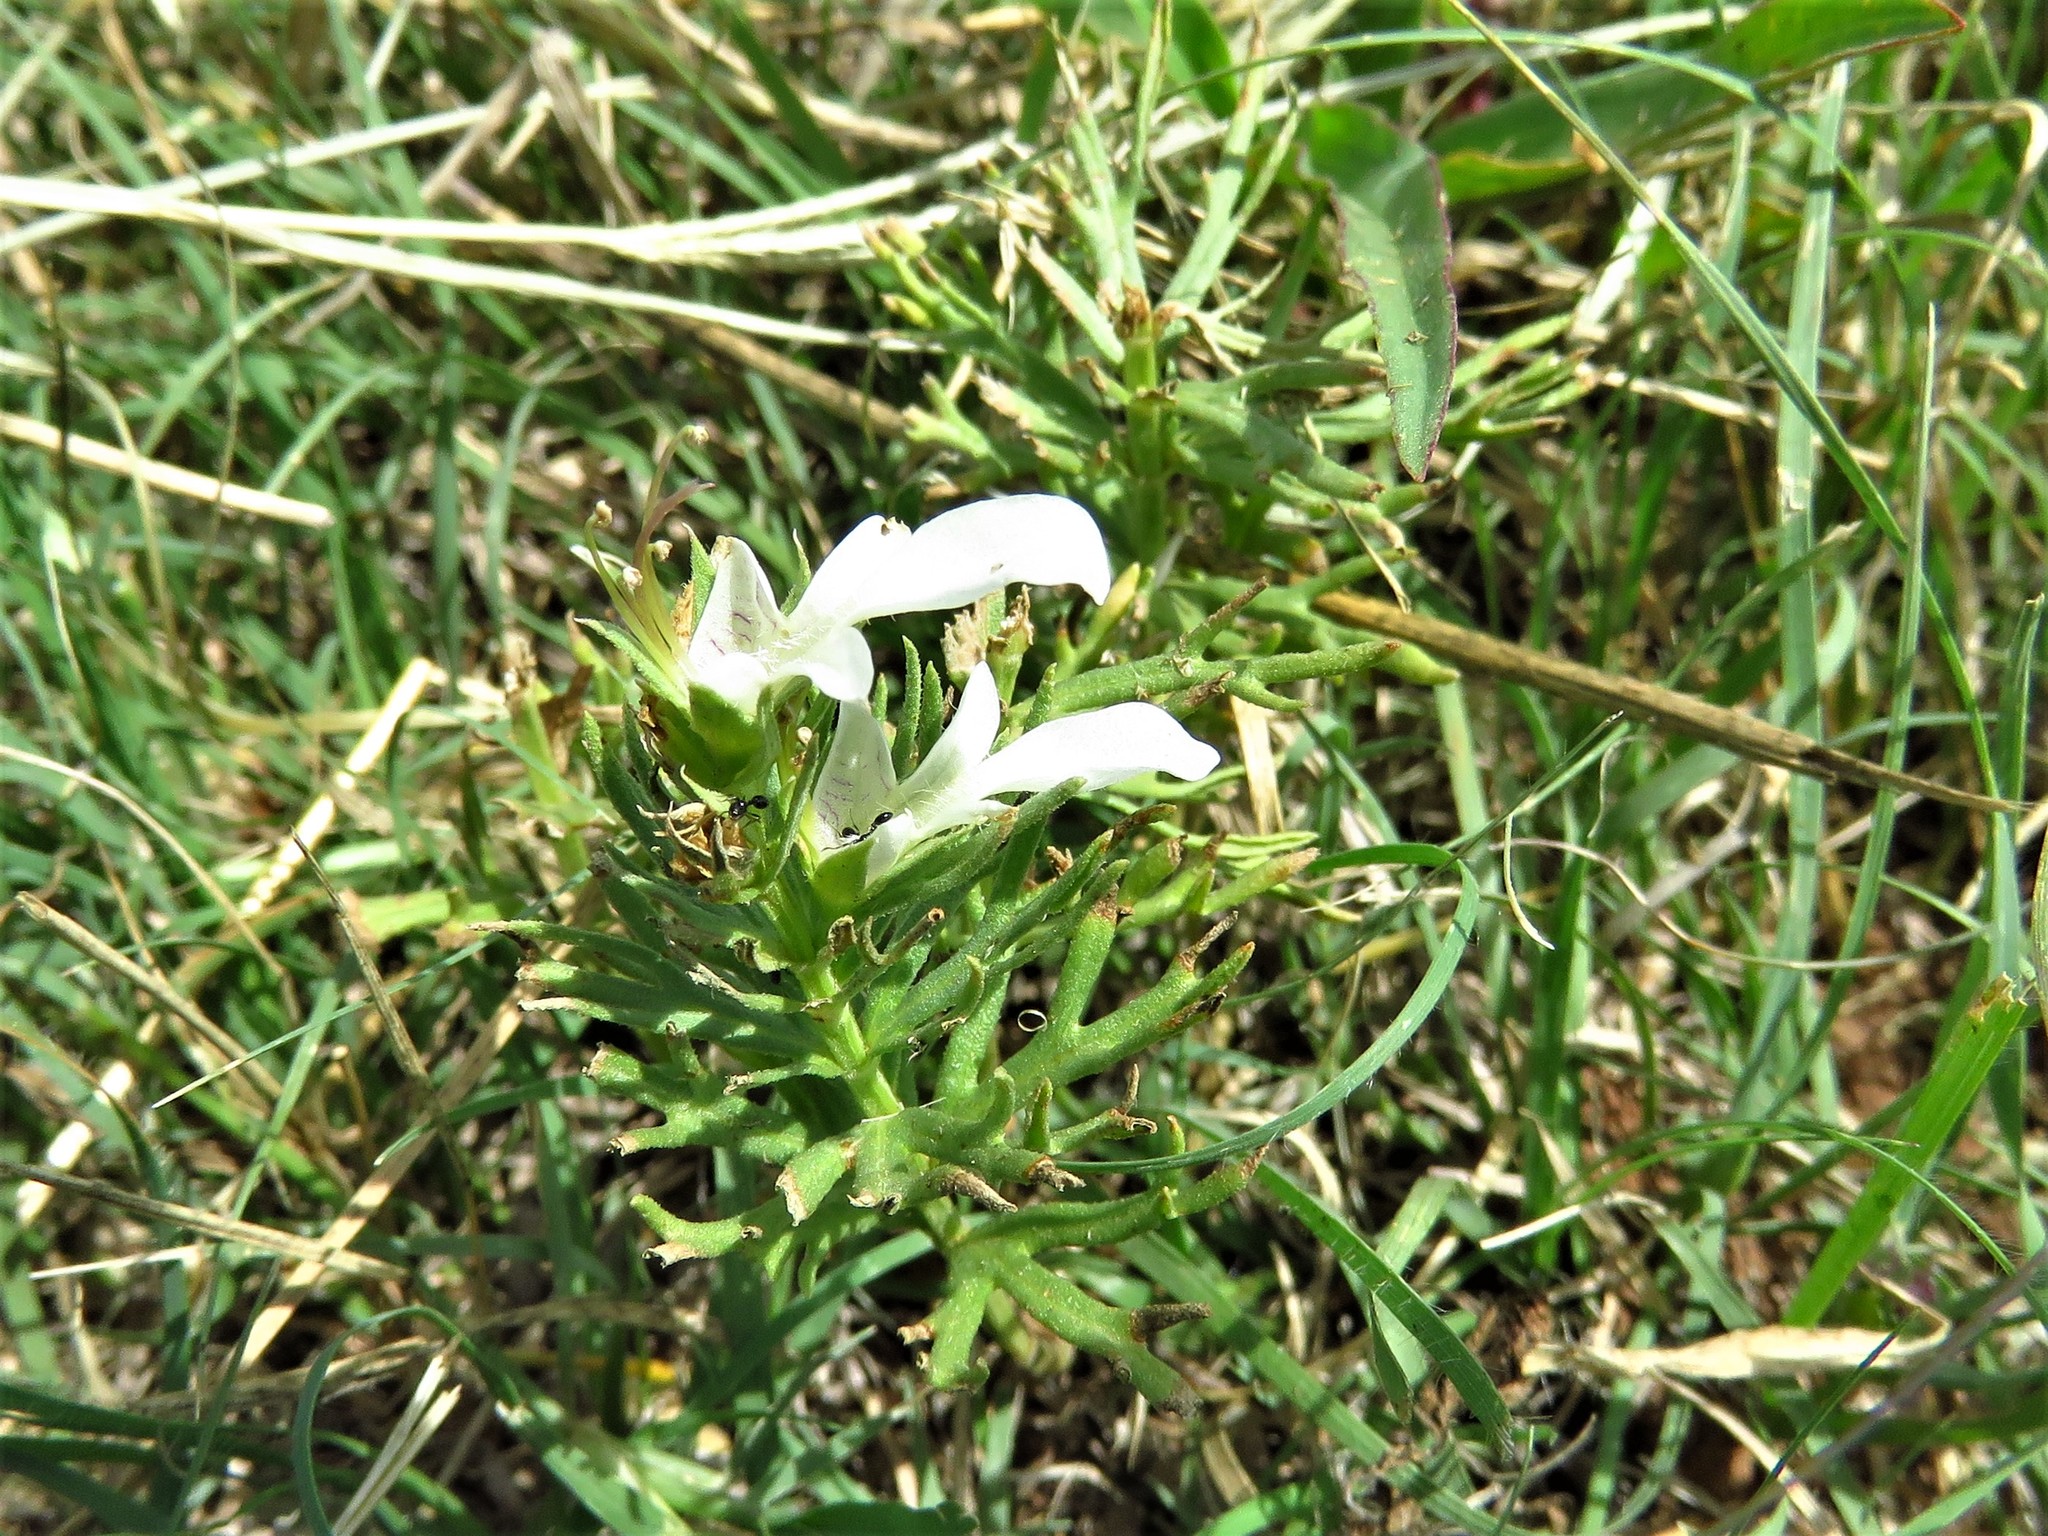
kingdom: Plantae
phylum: Tracheophyta
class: Magnoliopsida
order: Lamiales
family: Lamiaceae
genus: Teucrium
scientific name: Teucrium laciniatum
